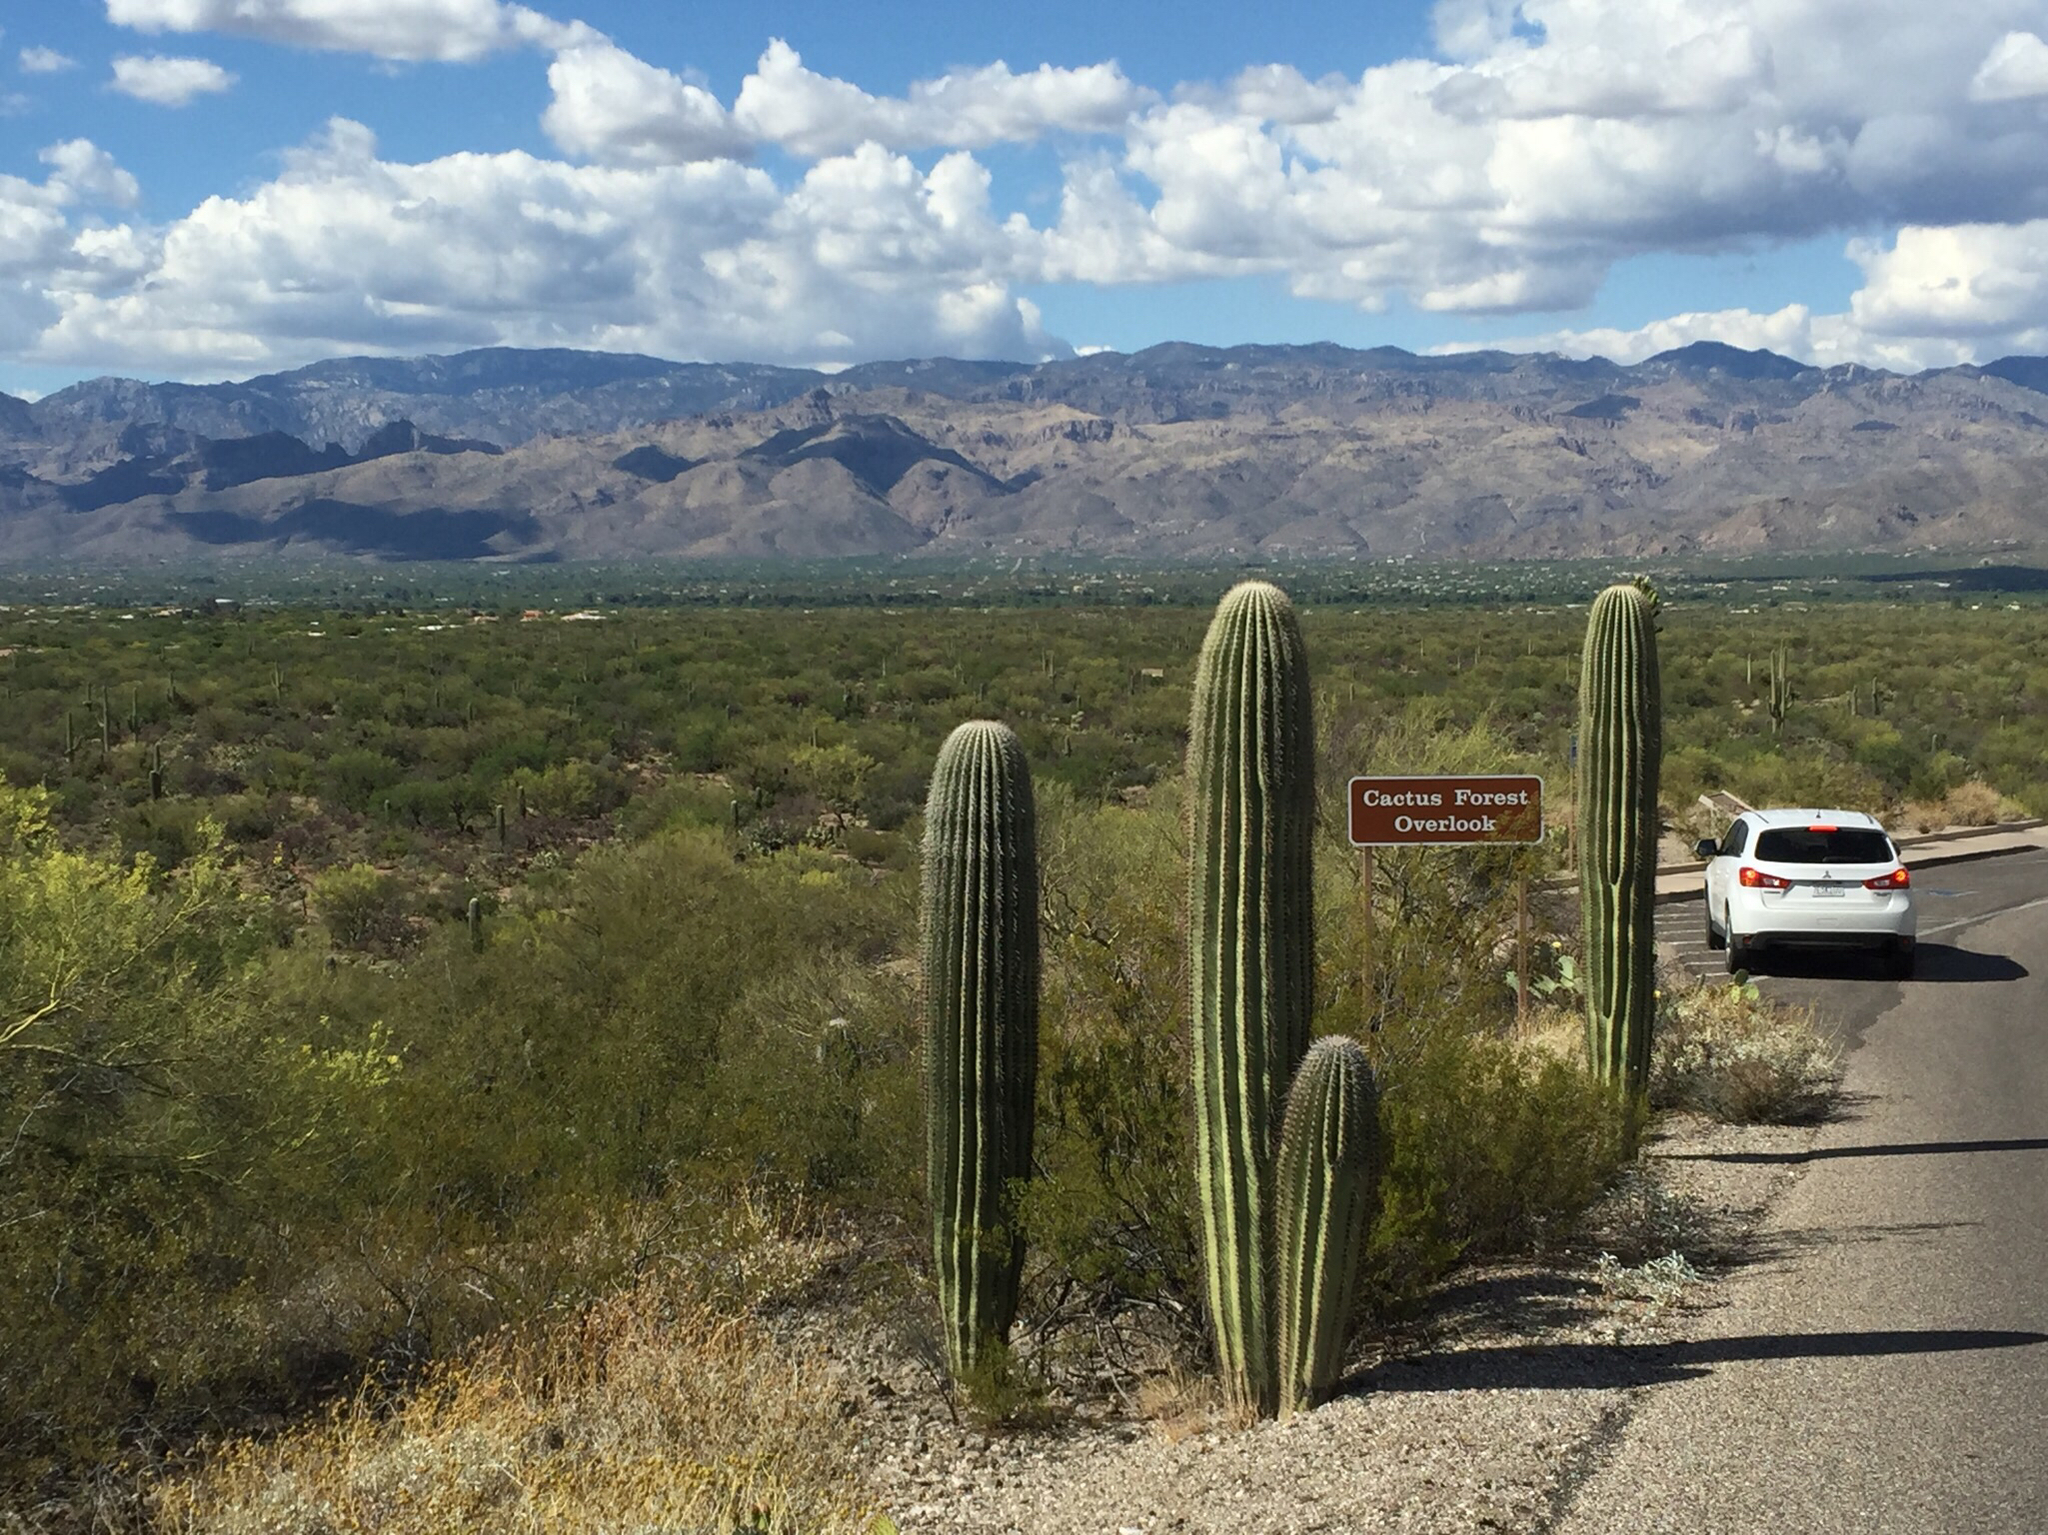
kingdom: Plantae
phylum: Tracheophyta
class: Magnoliopsida
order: Caryophyllales
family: Cactaceae
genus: Carnegiea
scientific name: Carnegiea gigantea
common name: Saguaro
